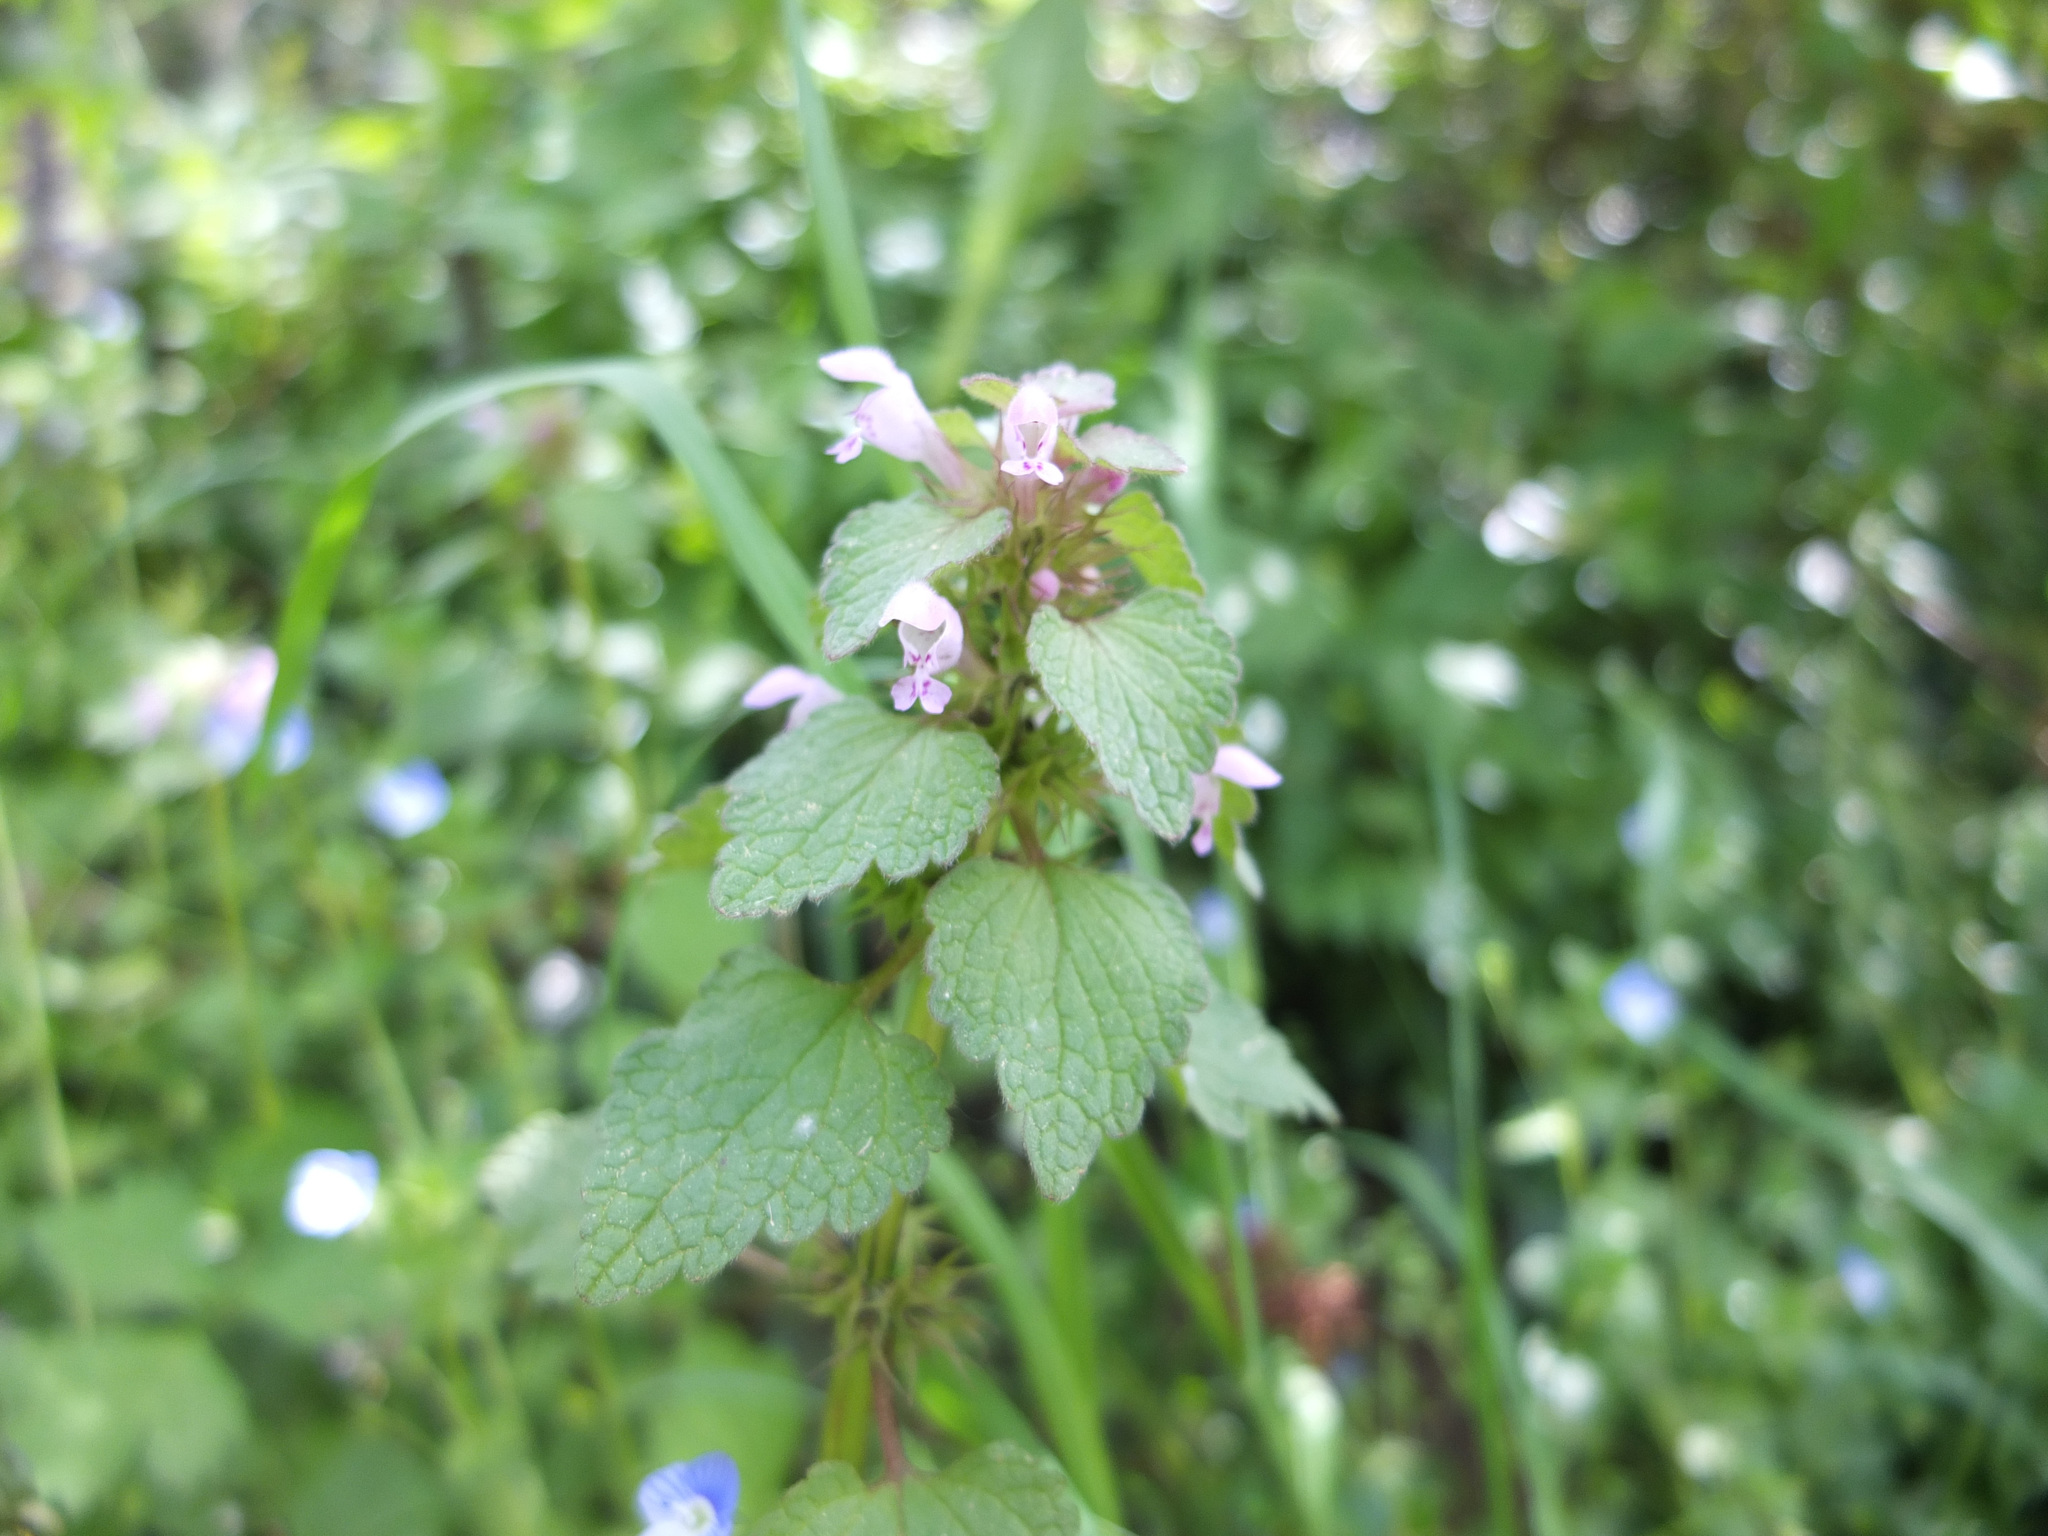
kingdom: Plantae
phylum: Tracheophyta
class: Magnoliopsida
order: Lamiales
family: Lamiaceae
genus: Lamium
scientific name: Lamium purpureum
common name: Red dead-nettle
